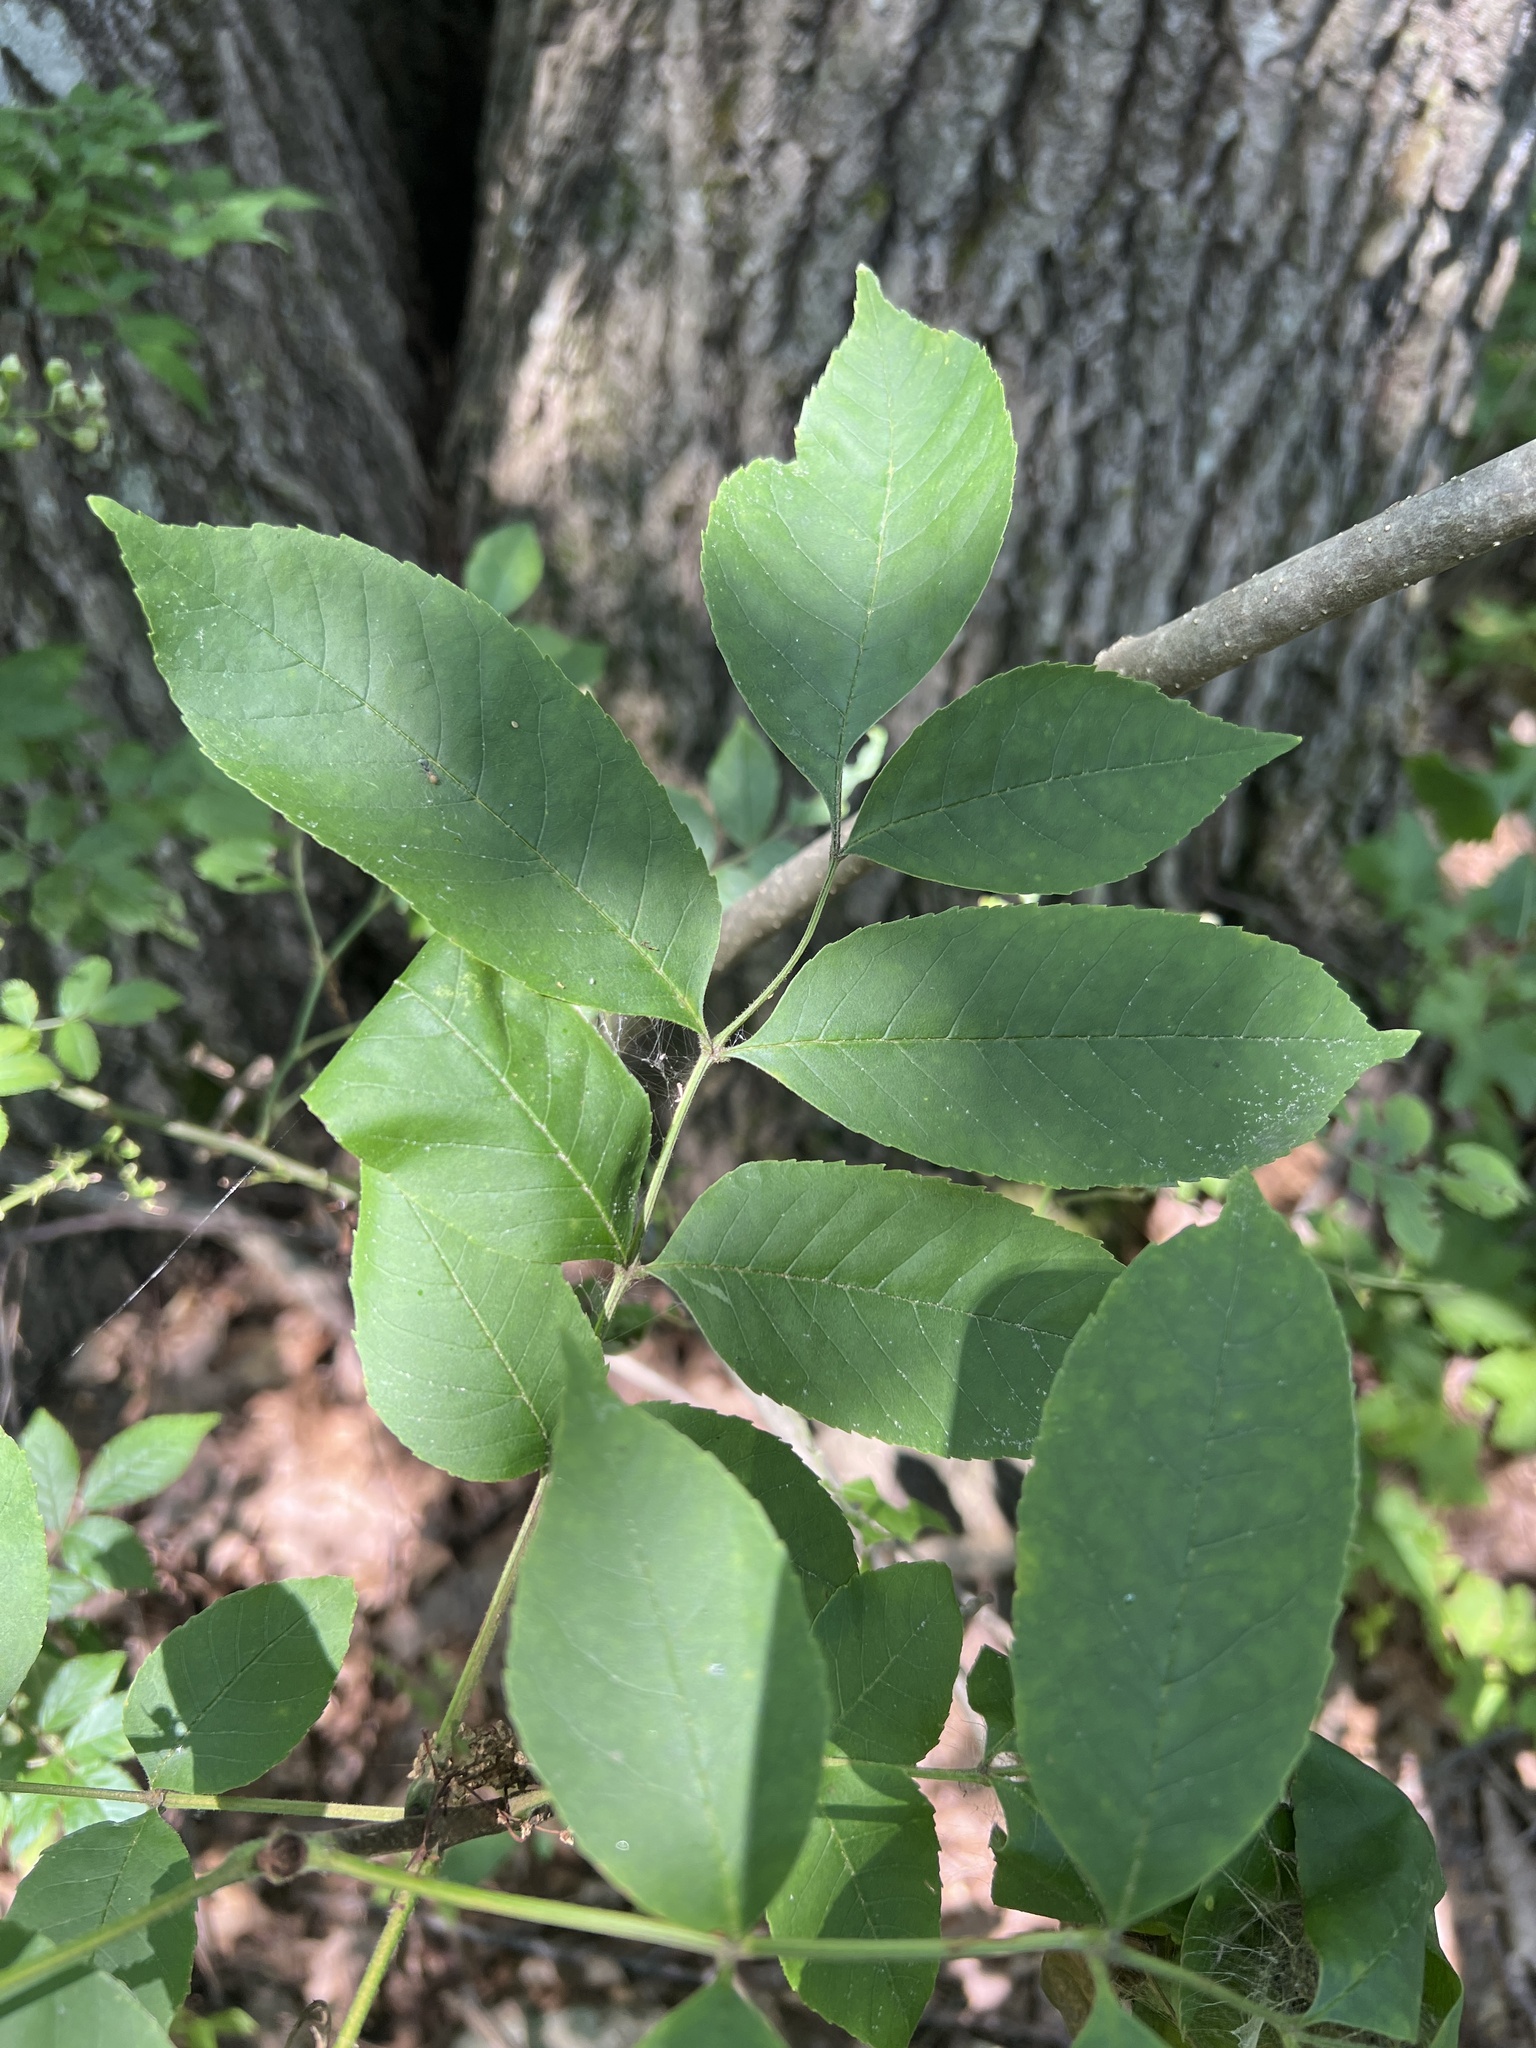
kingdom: Plantae
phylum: Tracheophyta
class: Magnoliopsida
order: Lamiales
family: Oleaceae
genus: Fraxinus
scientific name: Fraxinus pennsylvanica
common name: Green ash
